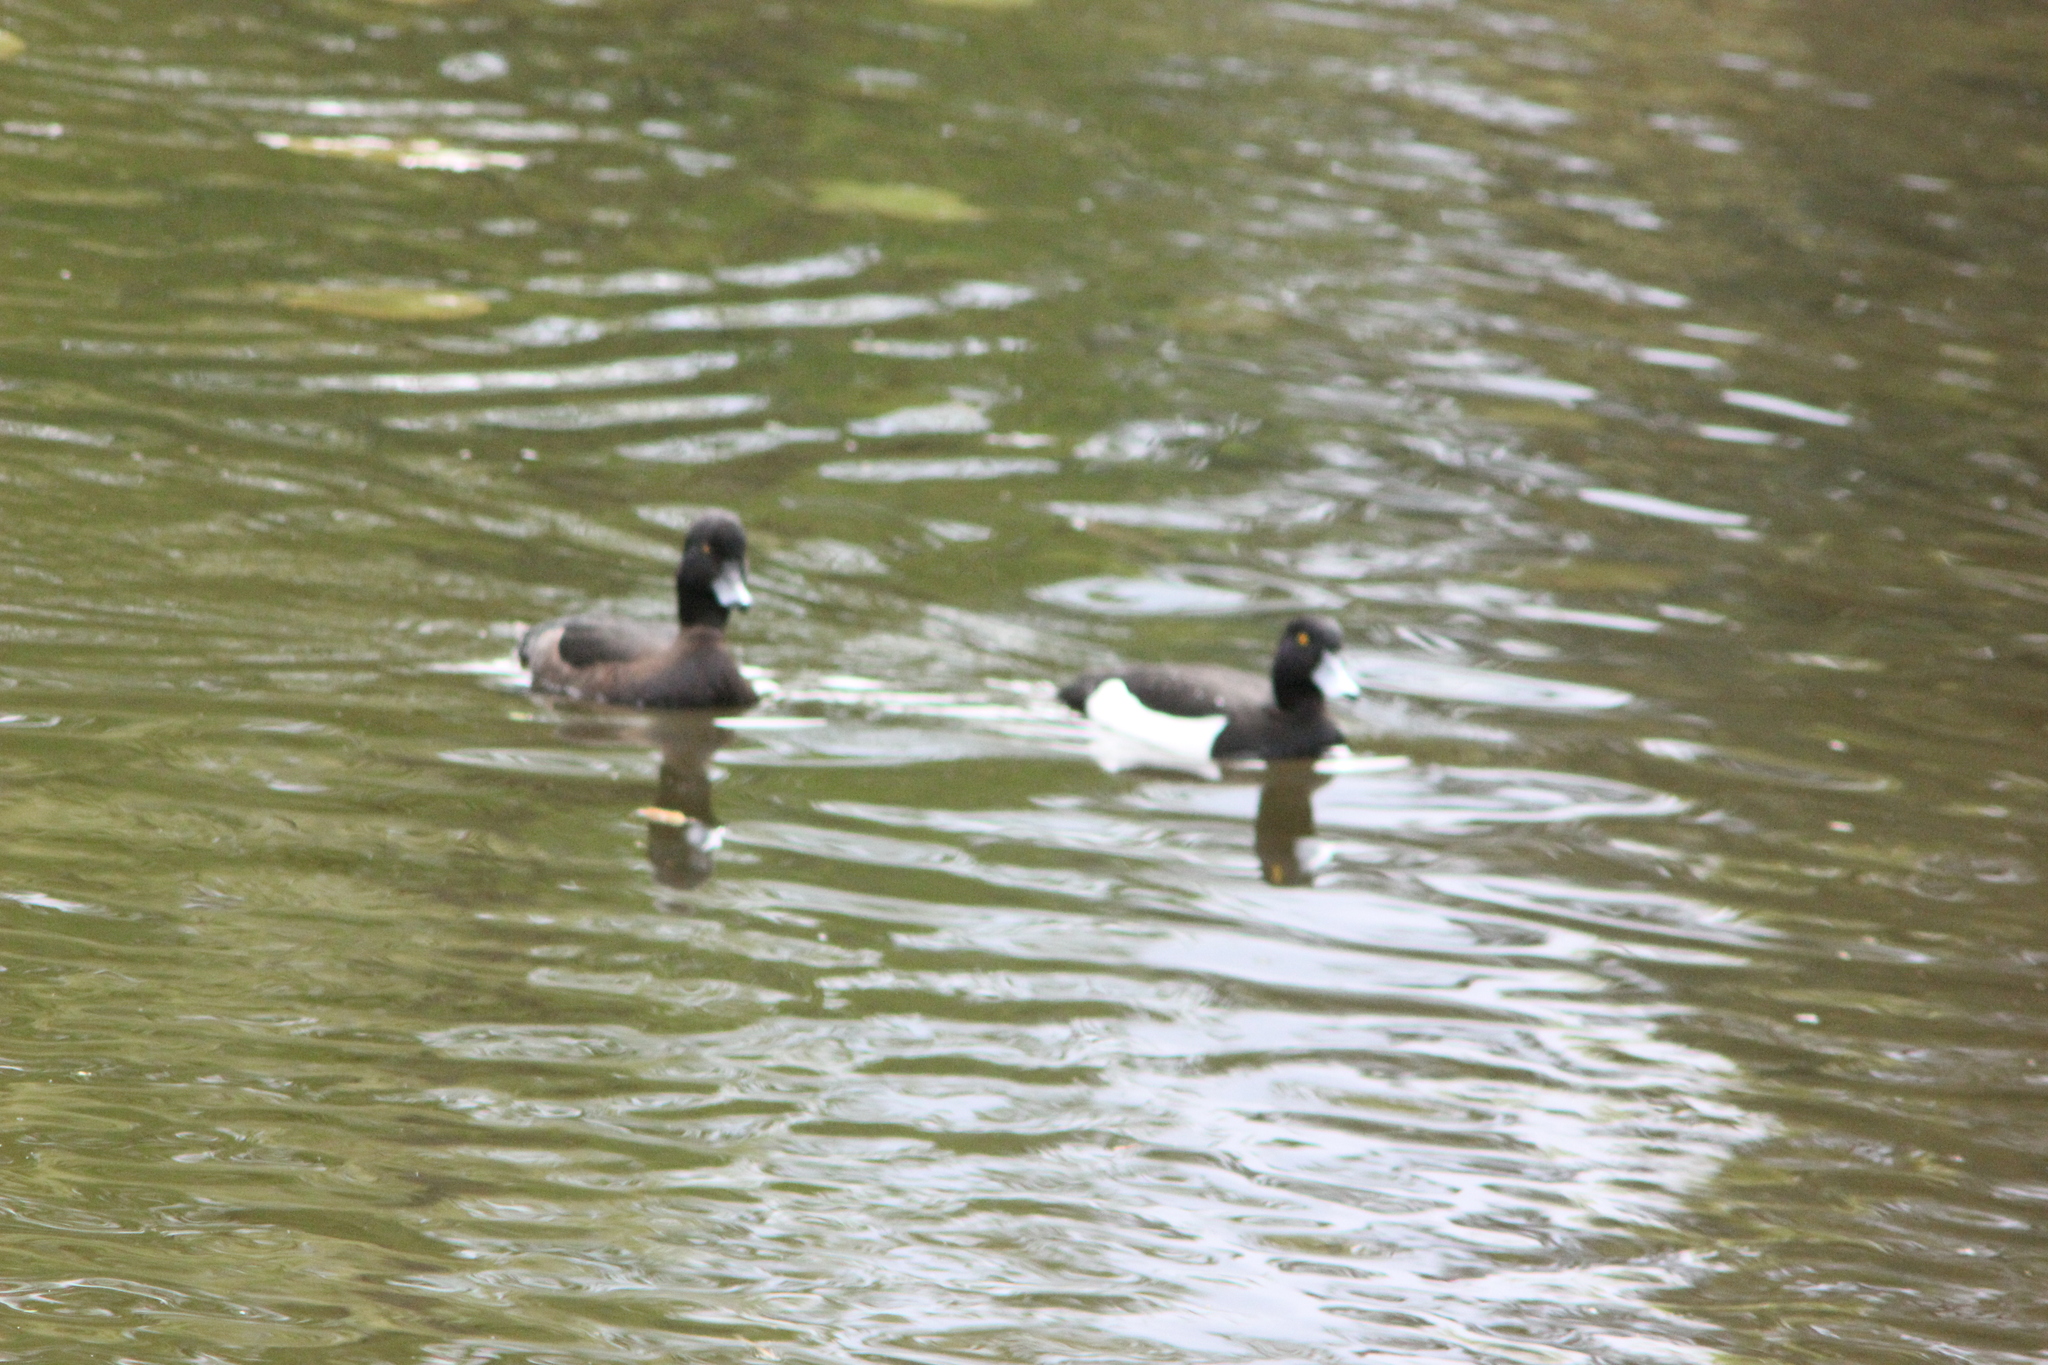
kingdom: Animalia
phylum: Chordata
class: Aves
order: Anseriformes
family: Anatidae
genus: Aythya
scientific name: Aythya fuligula
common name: Tufted duck
